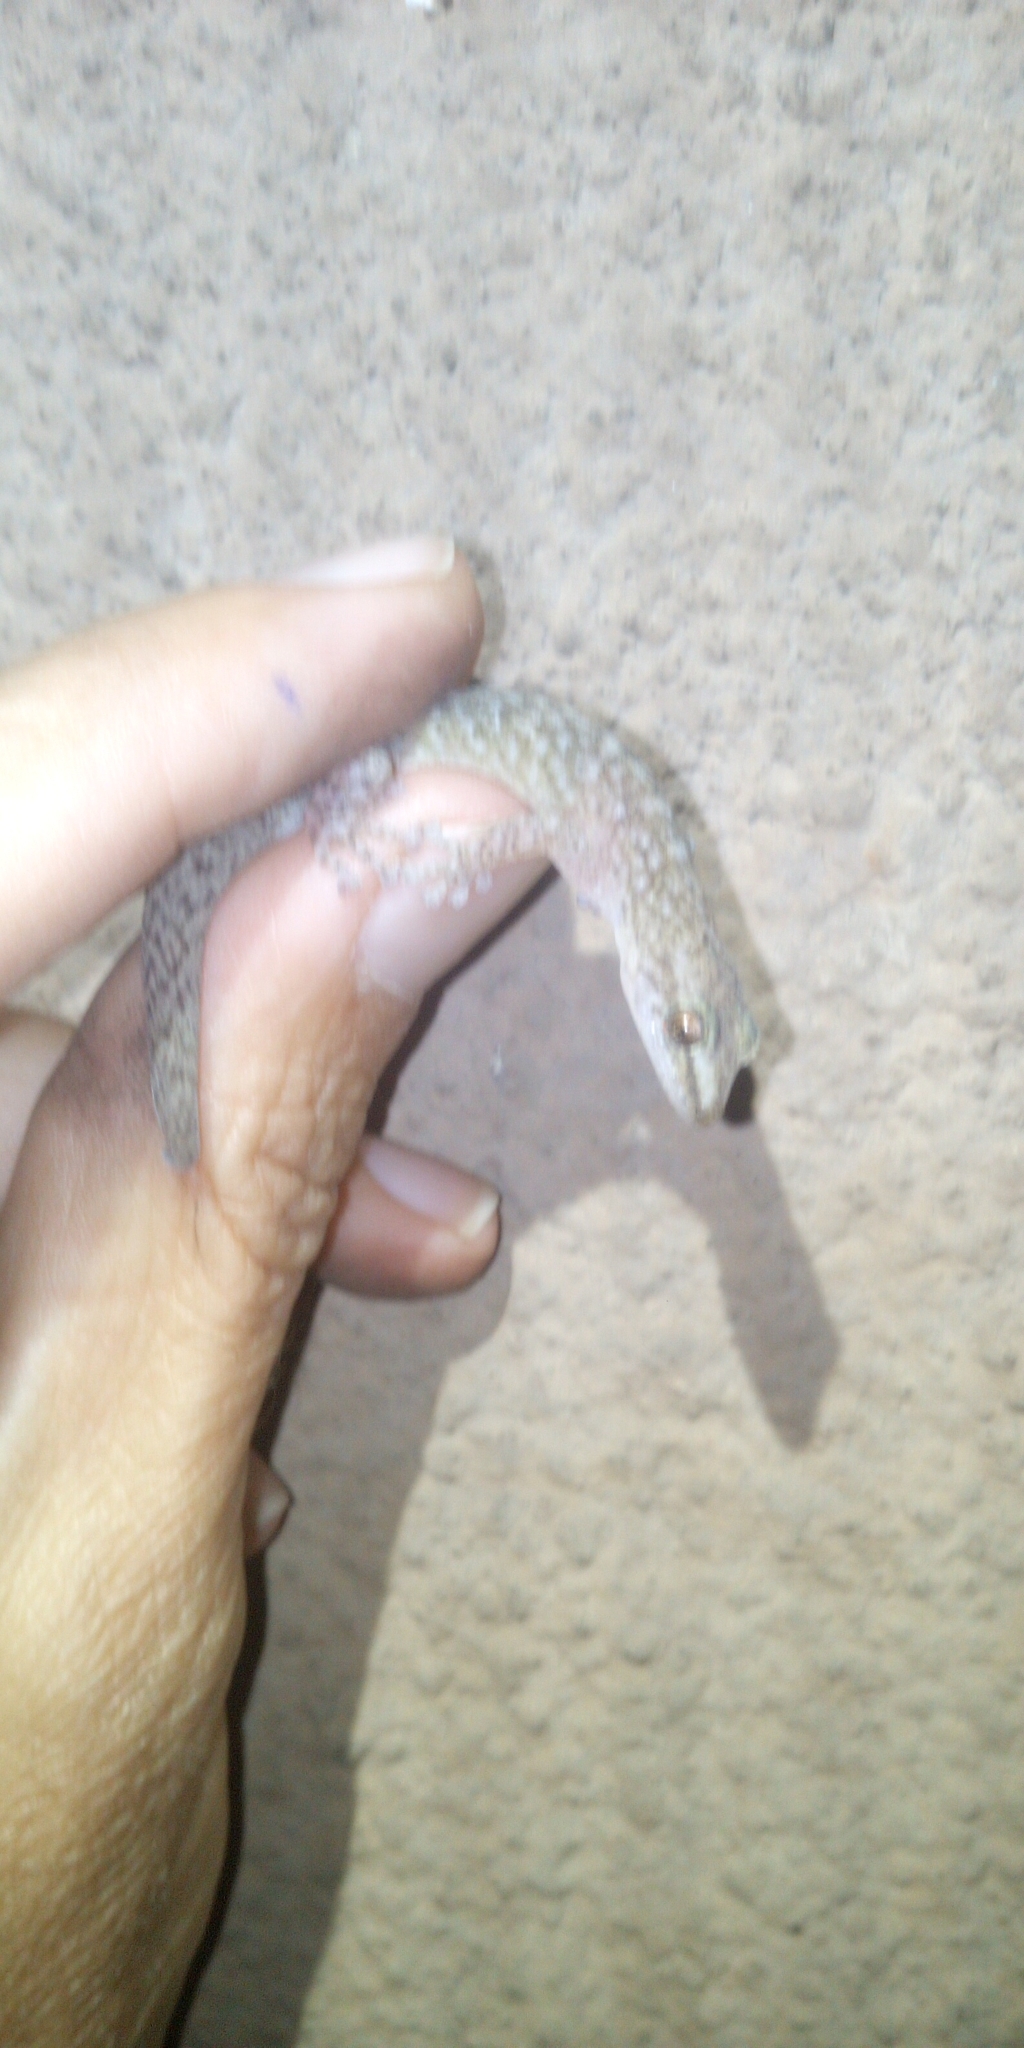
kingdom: Animalia
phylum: Chordata
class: Squamata
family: Gekkonidae
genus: Afrogecko
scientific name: Afrogecko porphyreus
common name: Marbled leaf-toed gecko
